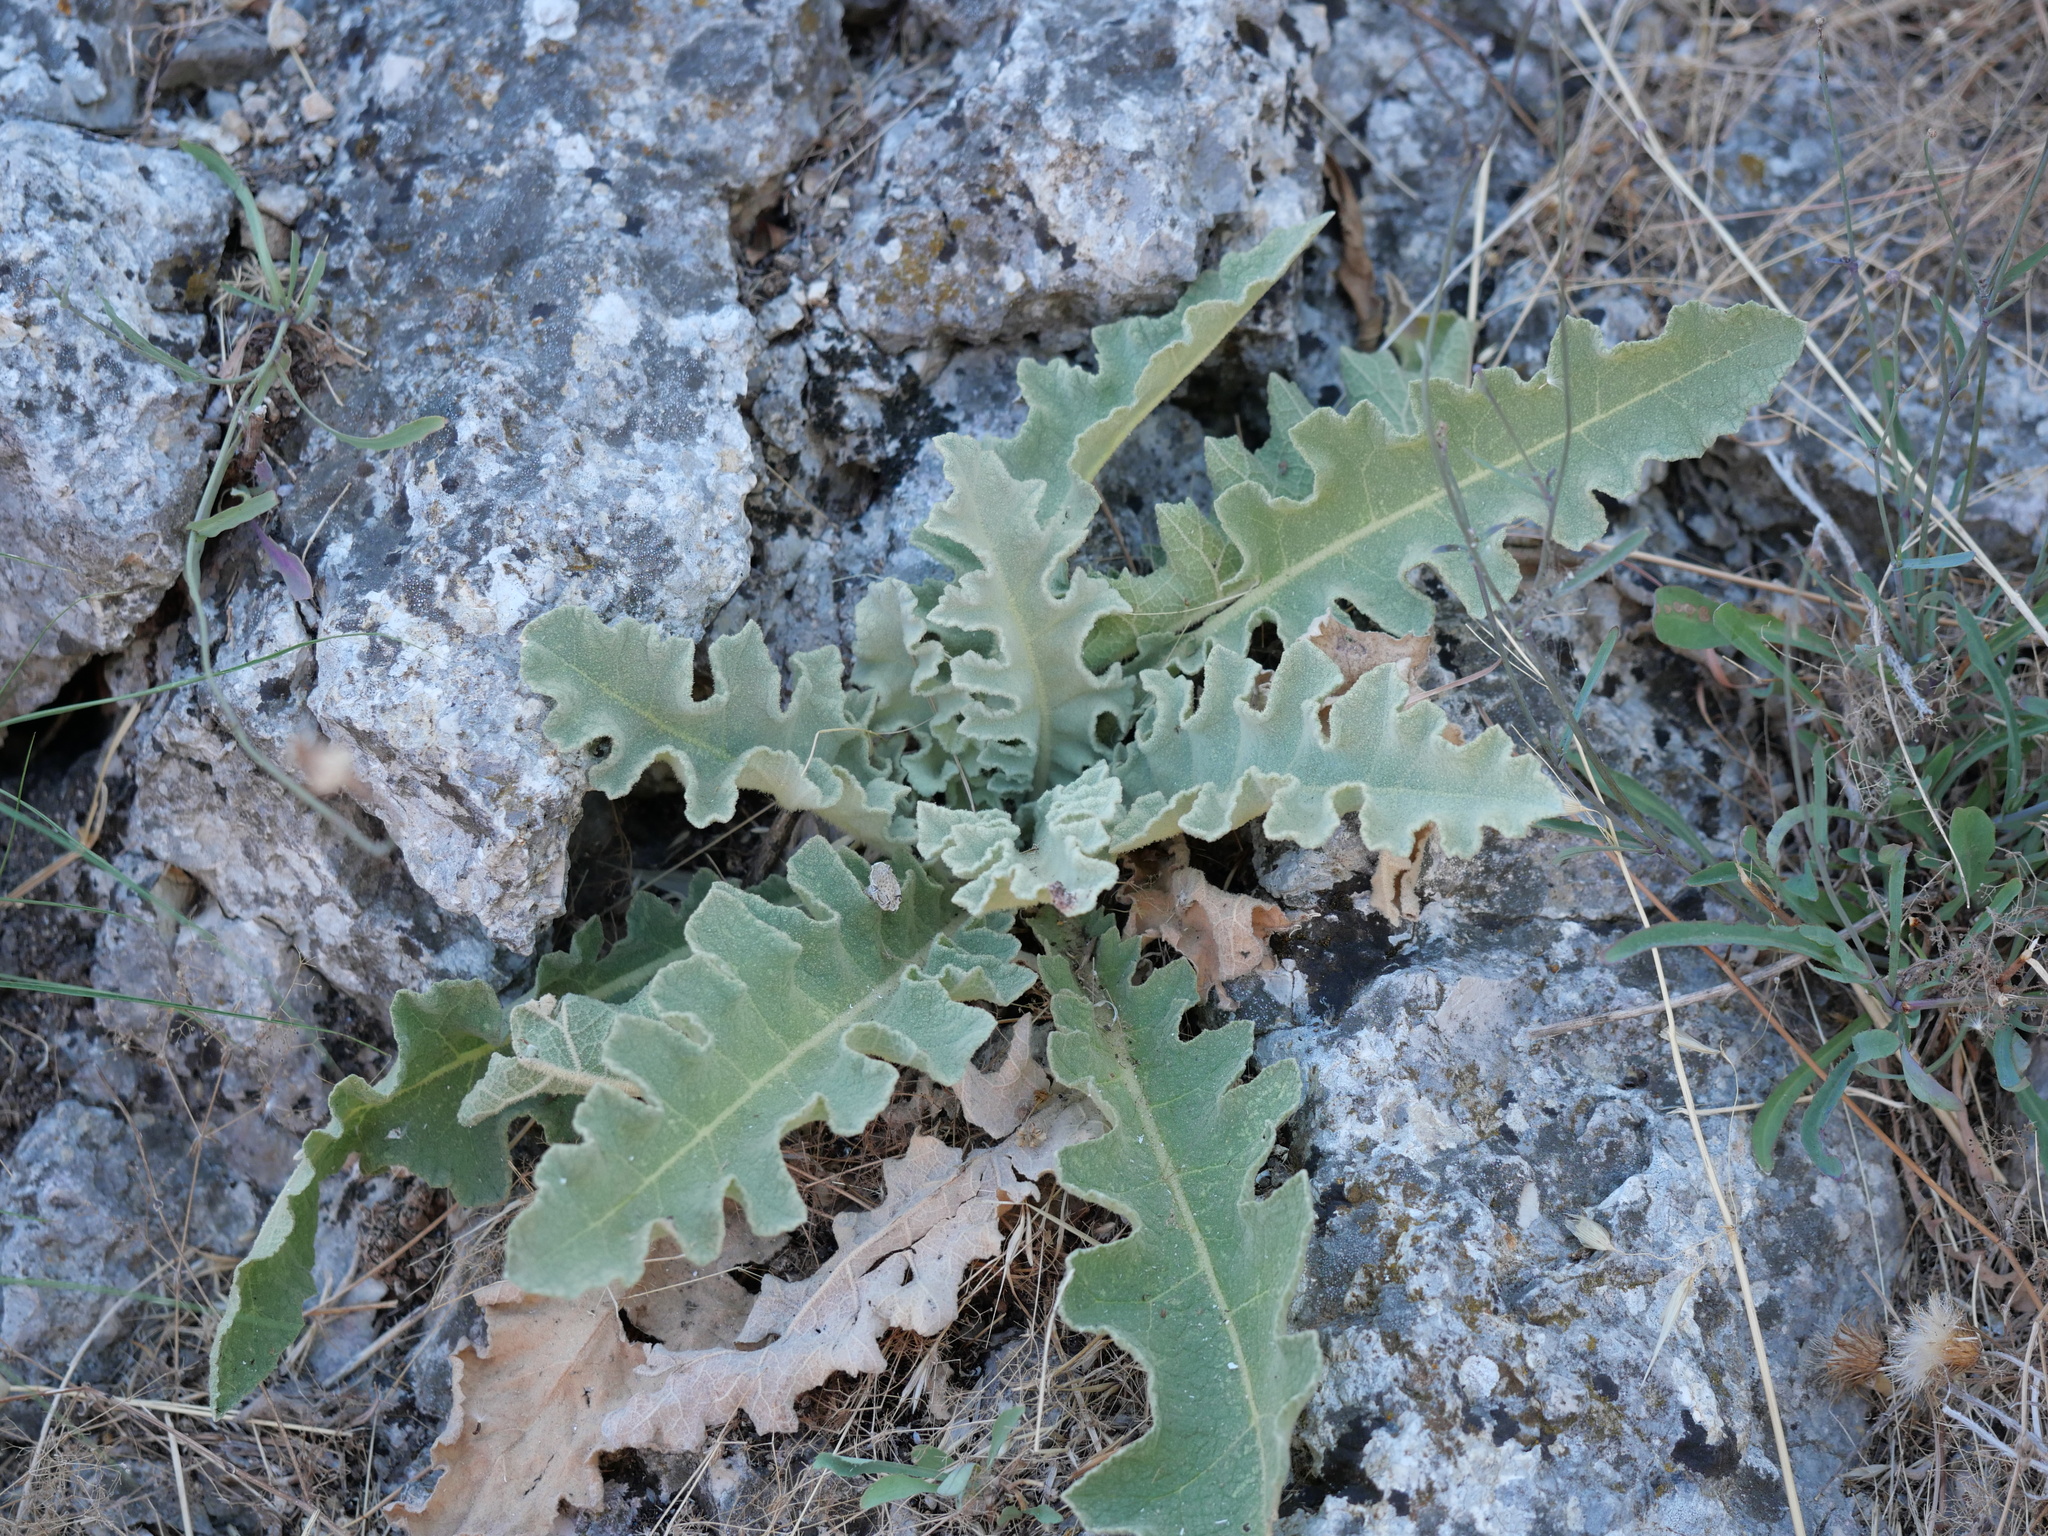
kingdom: Plantae
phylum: Tracheophyta
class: Magnoliopsida
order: Lamiales
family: Scrophulariaceae
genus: Verbascum
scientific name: Verbascum sinuatum
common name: Wavyleaf mullein
